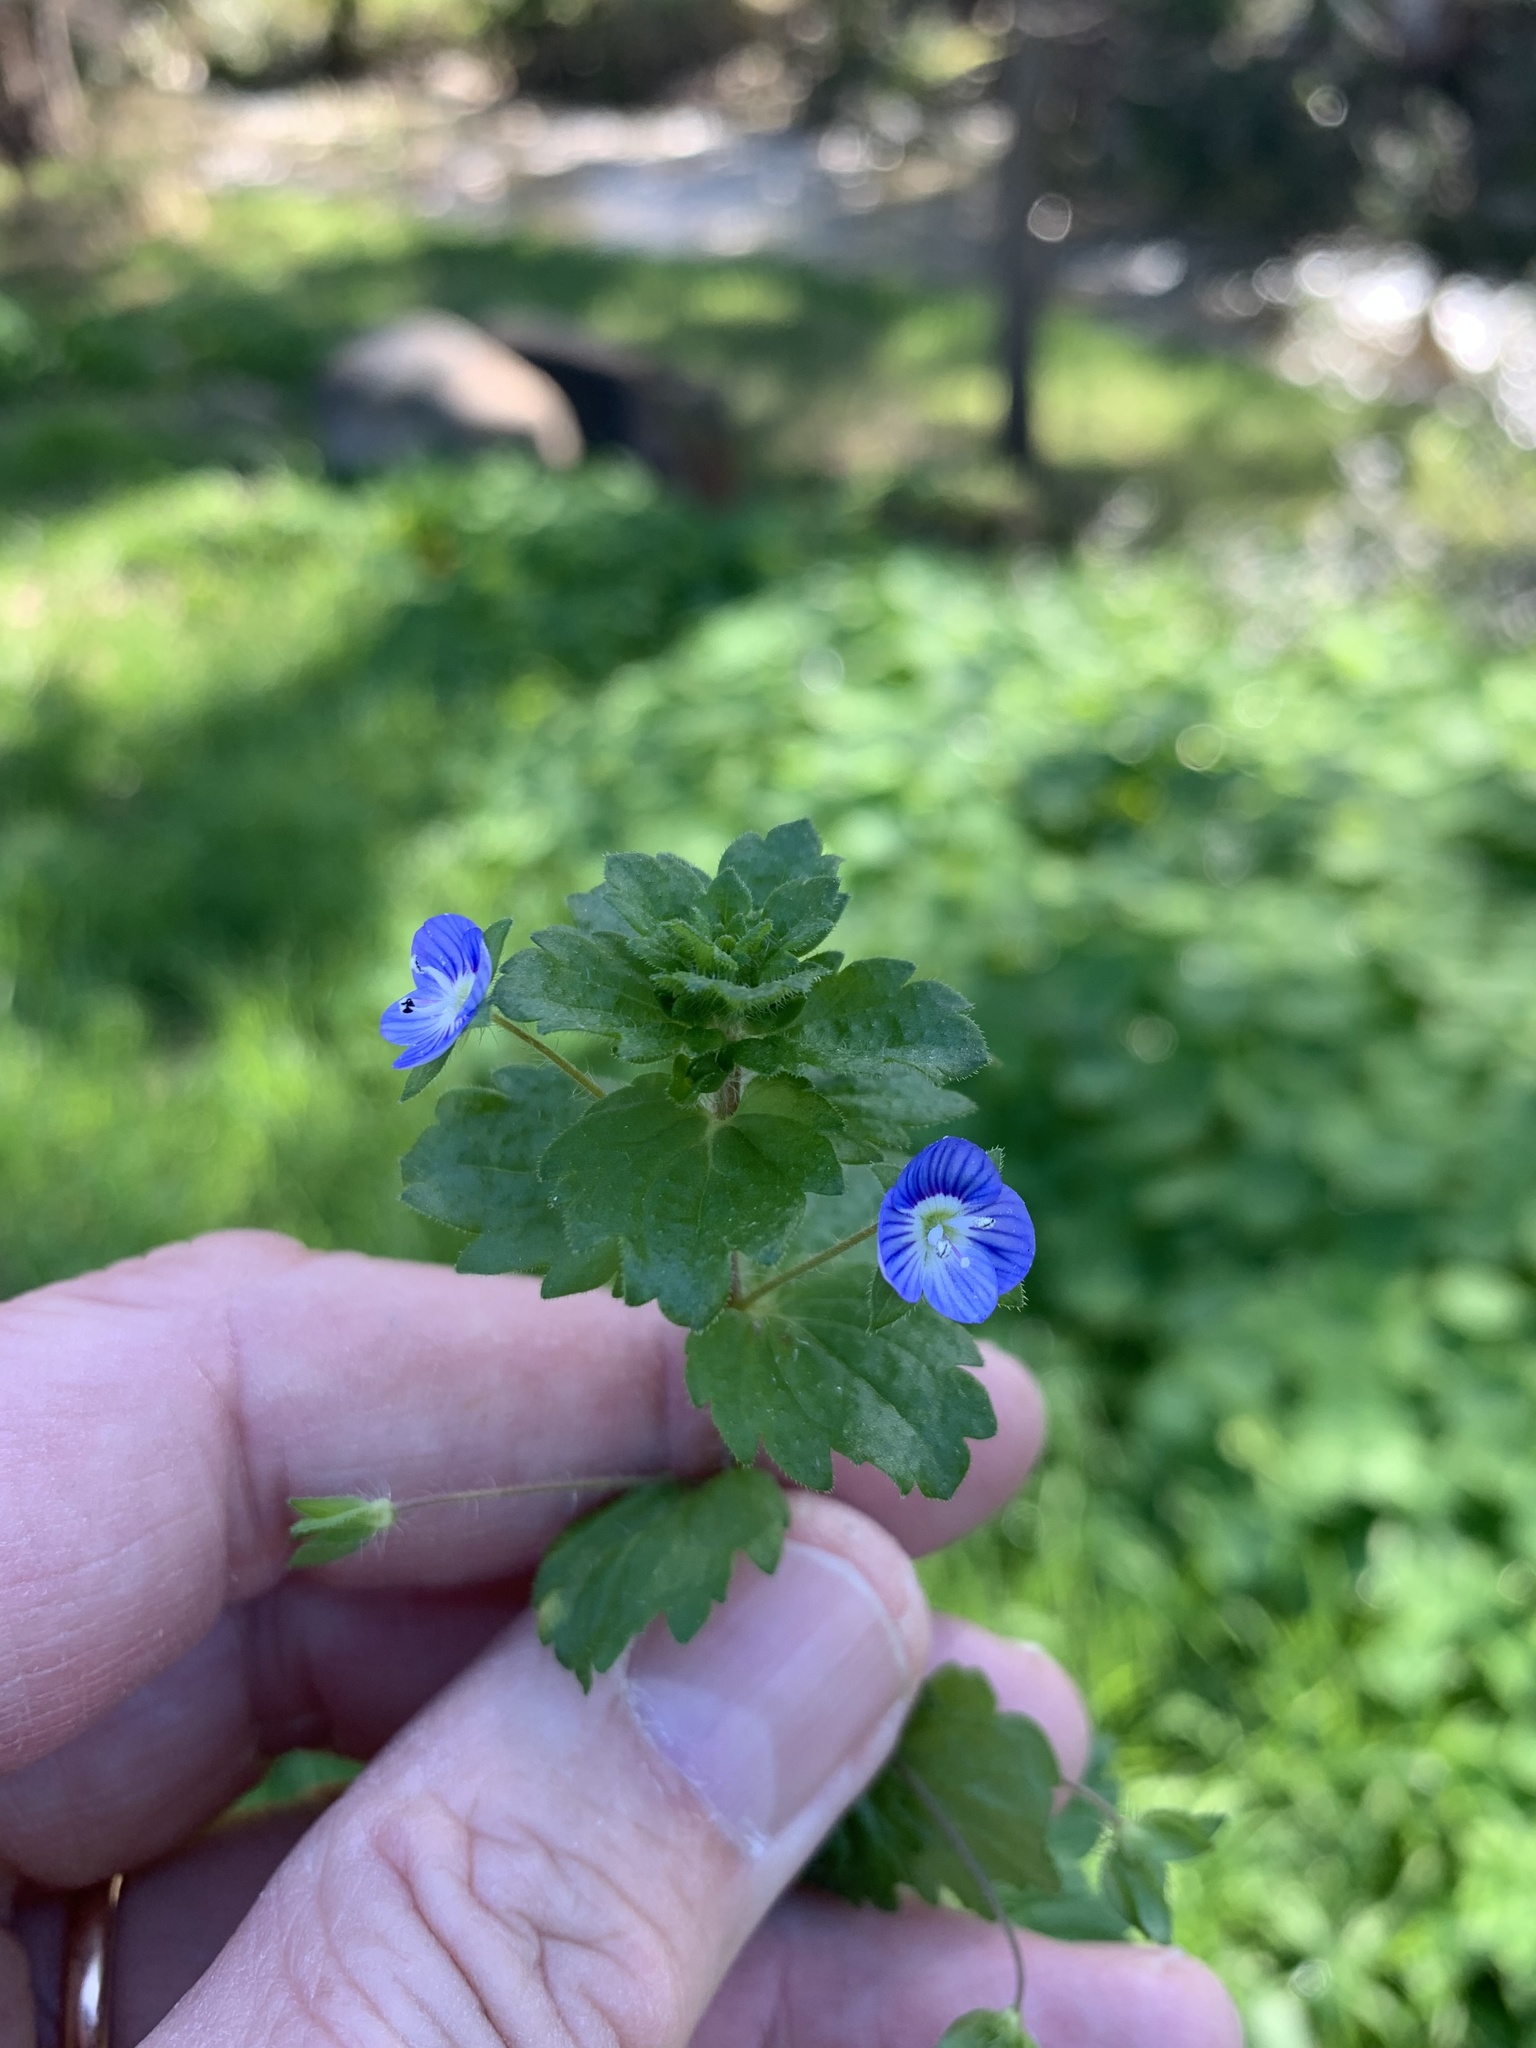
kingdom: Plantae
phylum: Tracheophyta
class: Magnoliopsida
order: Lamiales
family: Plantaginaceae
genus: Veronica
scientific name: Veronica persica
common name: Common field-speedwell
